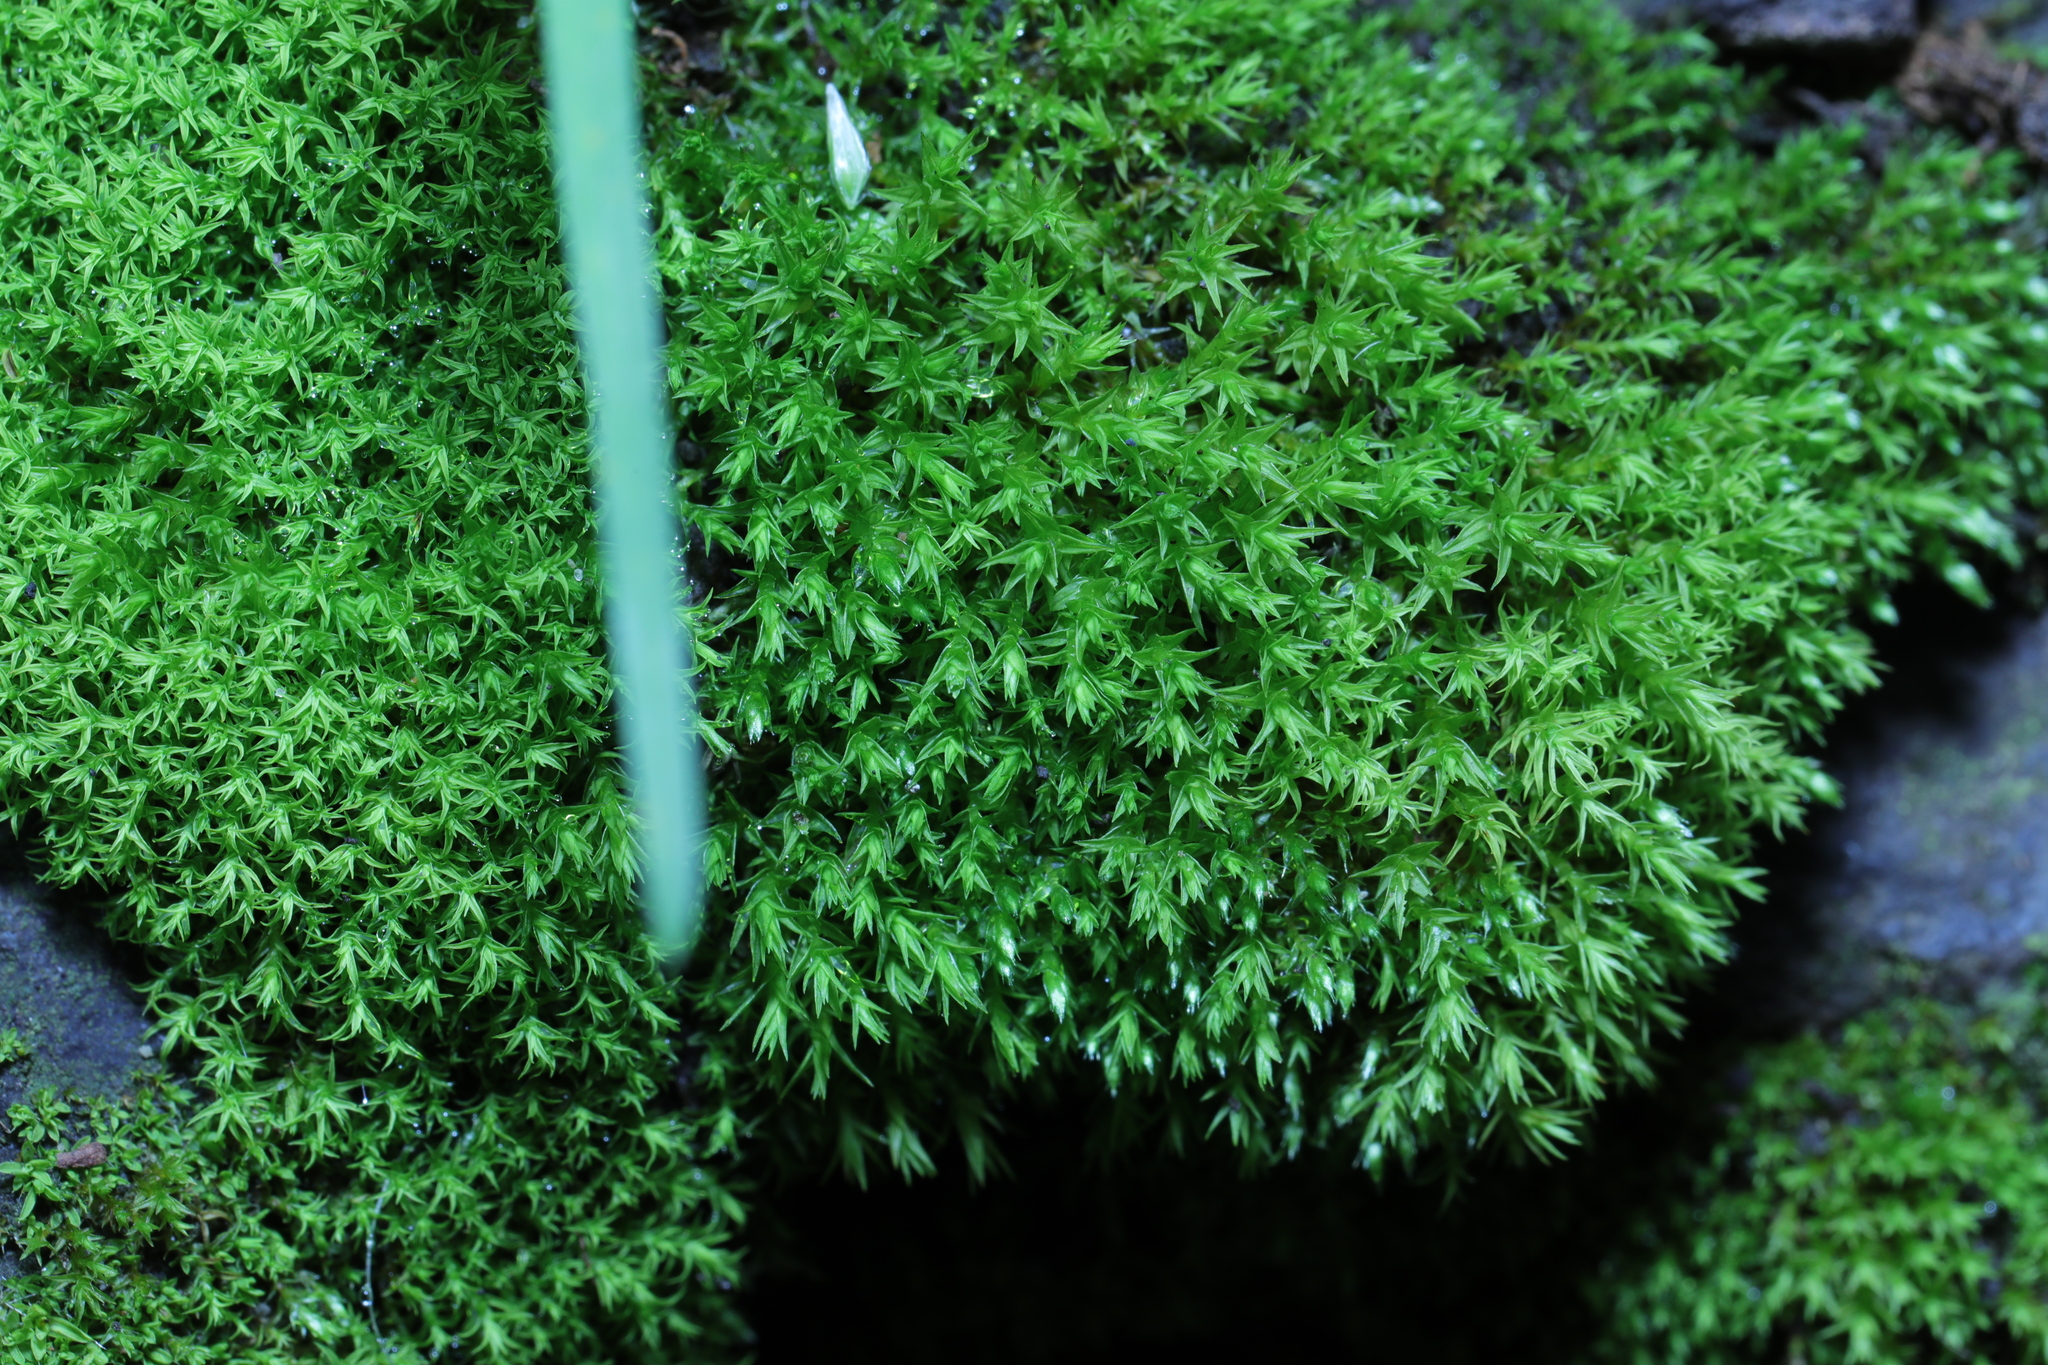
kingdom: Plantae
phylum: Bryophyta
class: Bryopsida
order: Pottiales
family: Pottiaceae
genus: Vinealobryum
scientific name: Vinealobryum insulanum
